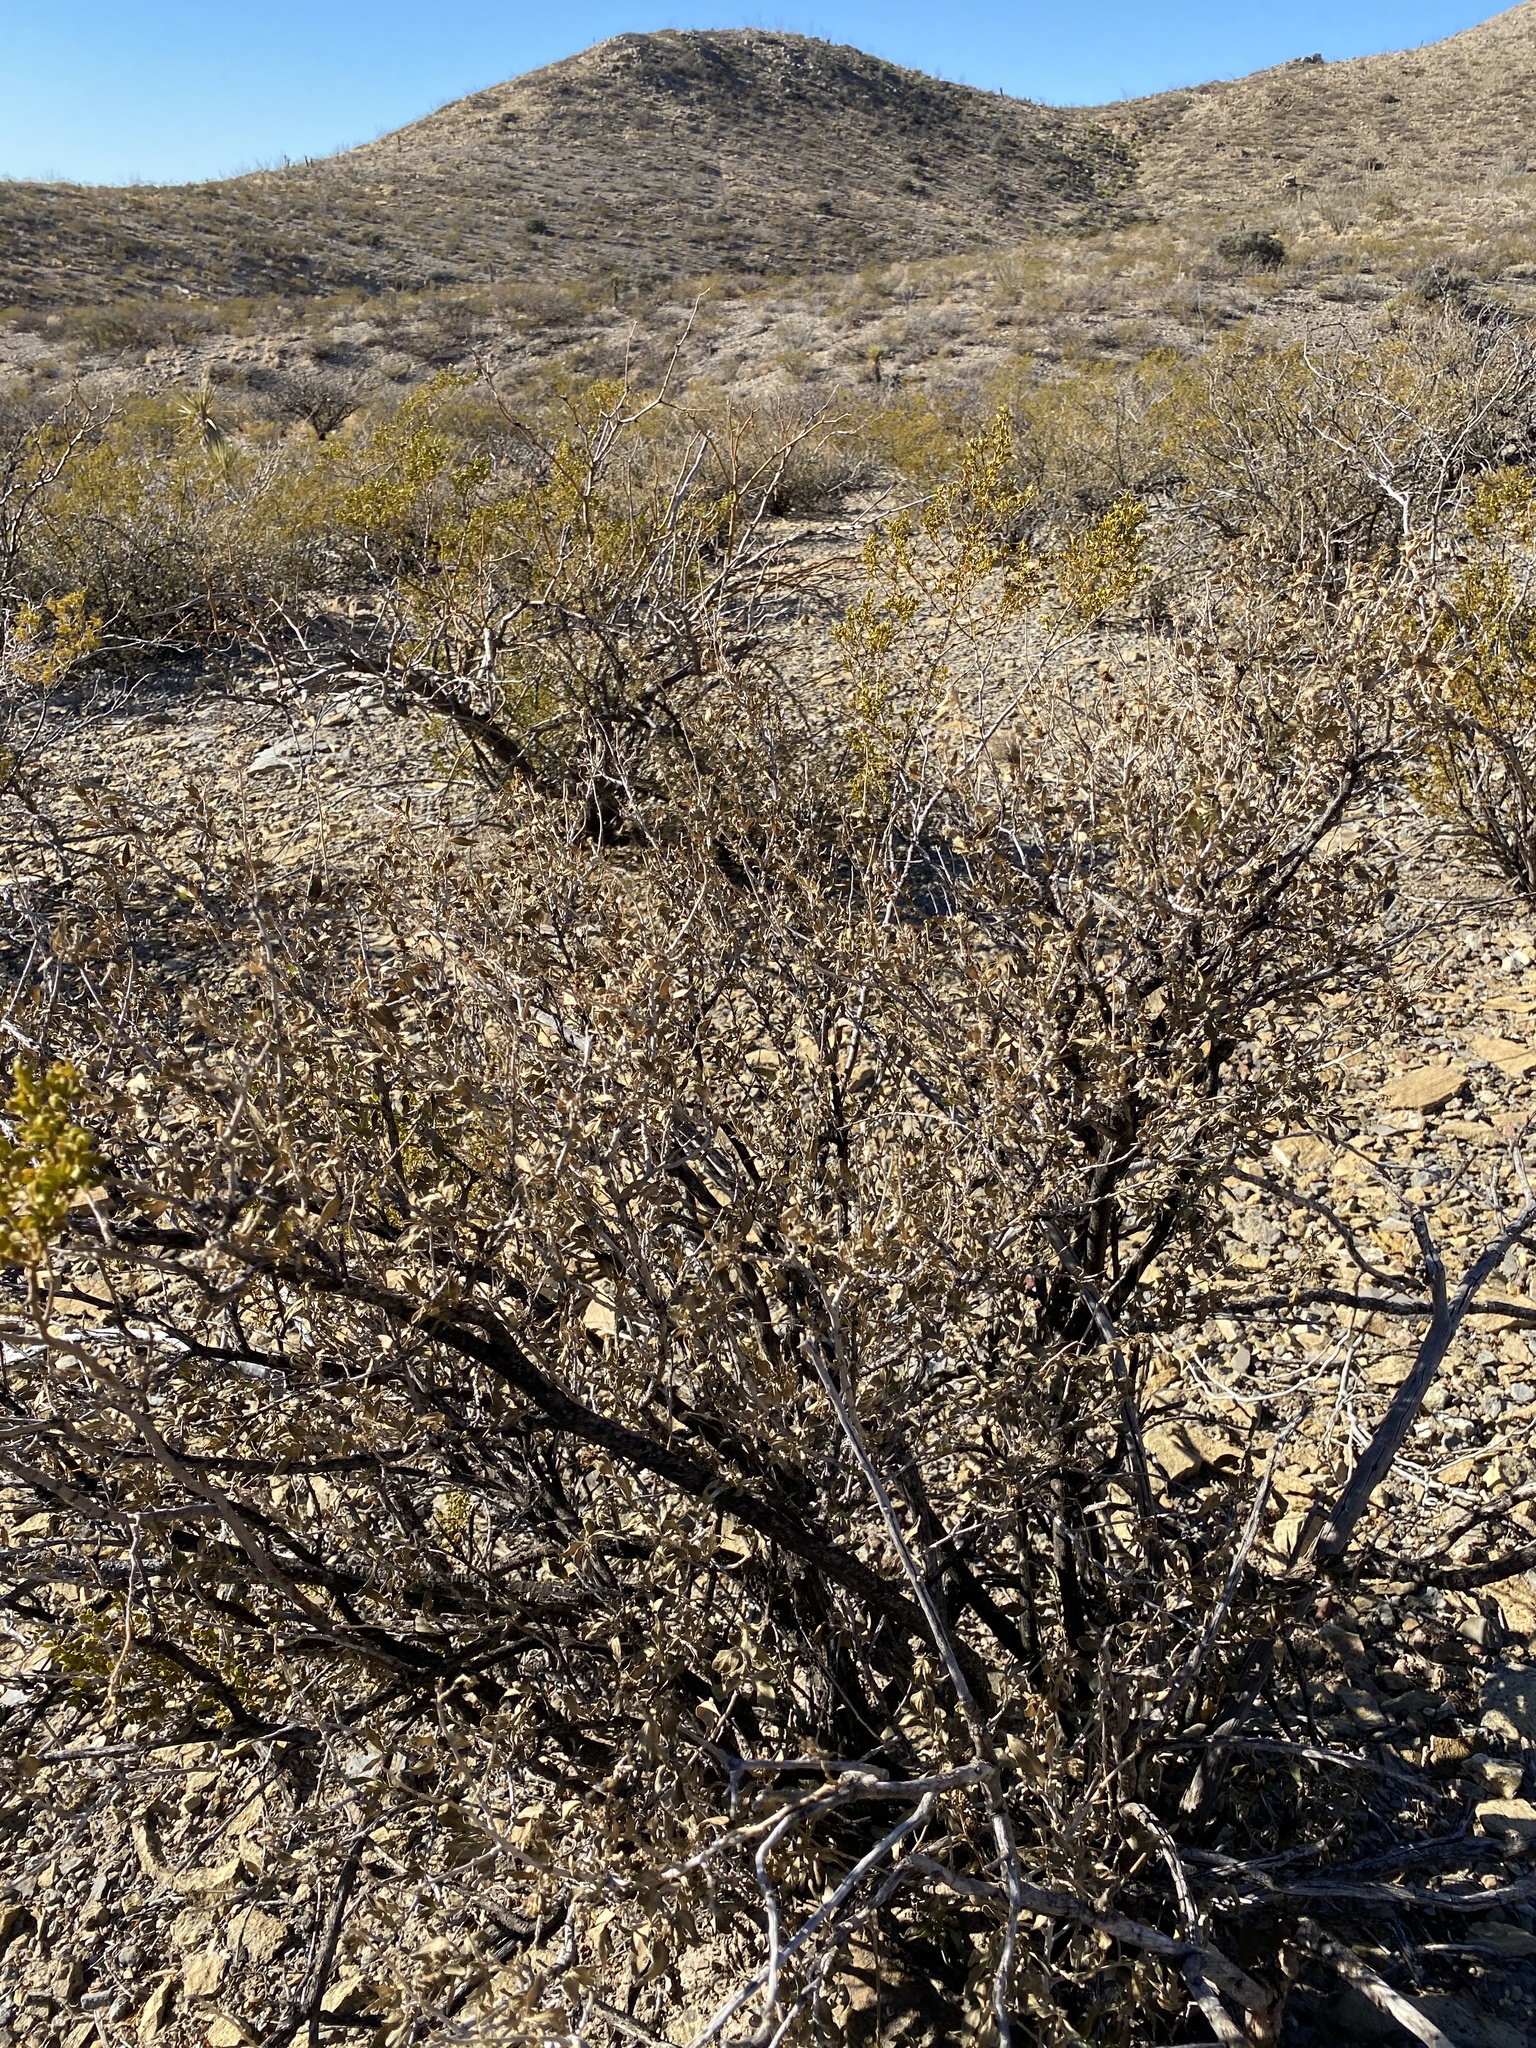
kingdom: Plantae
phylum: Tracheophyta
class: Magnoliopsida
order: Asterales
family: Asteraceae
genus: Flourensia
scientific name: Flourensia cernua
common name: Varnishbush
